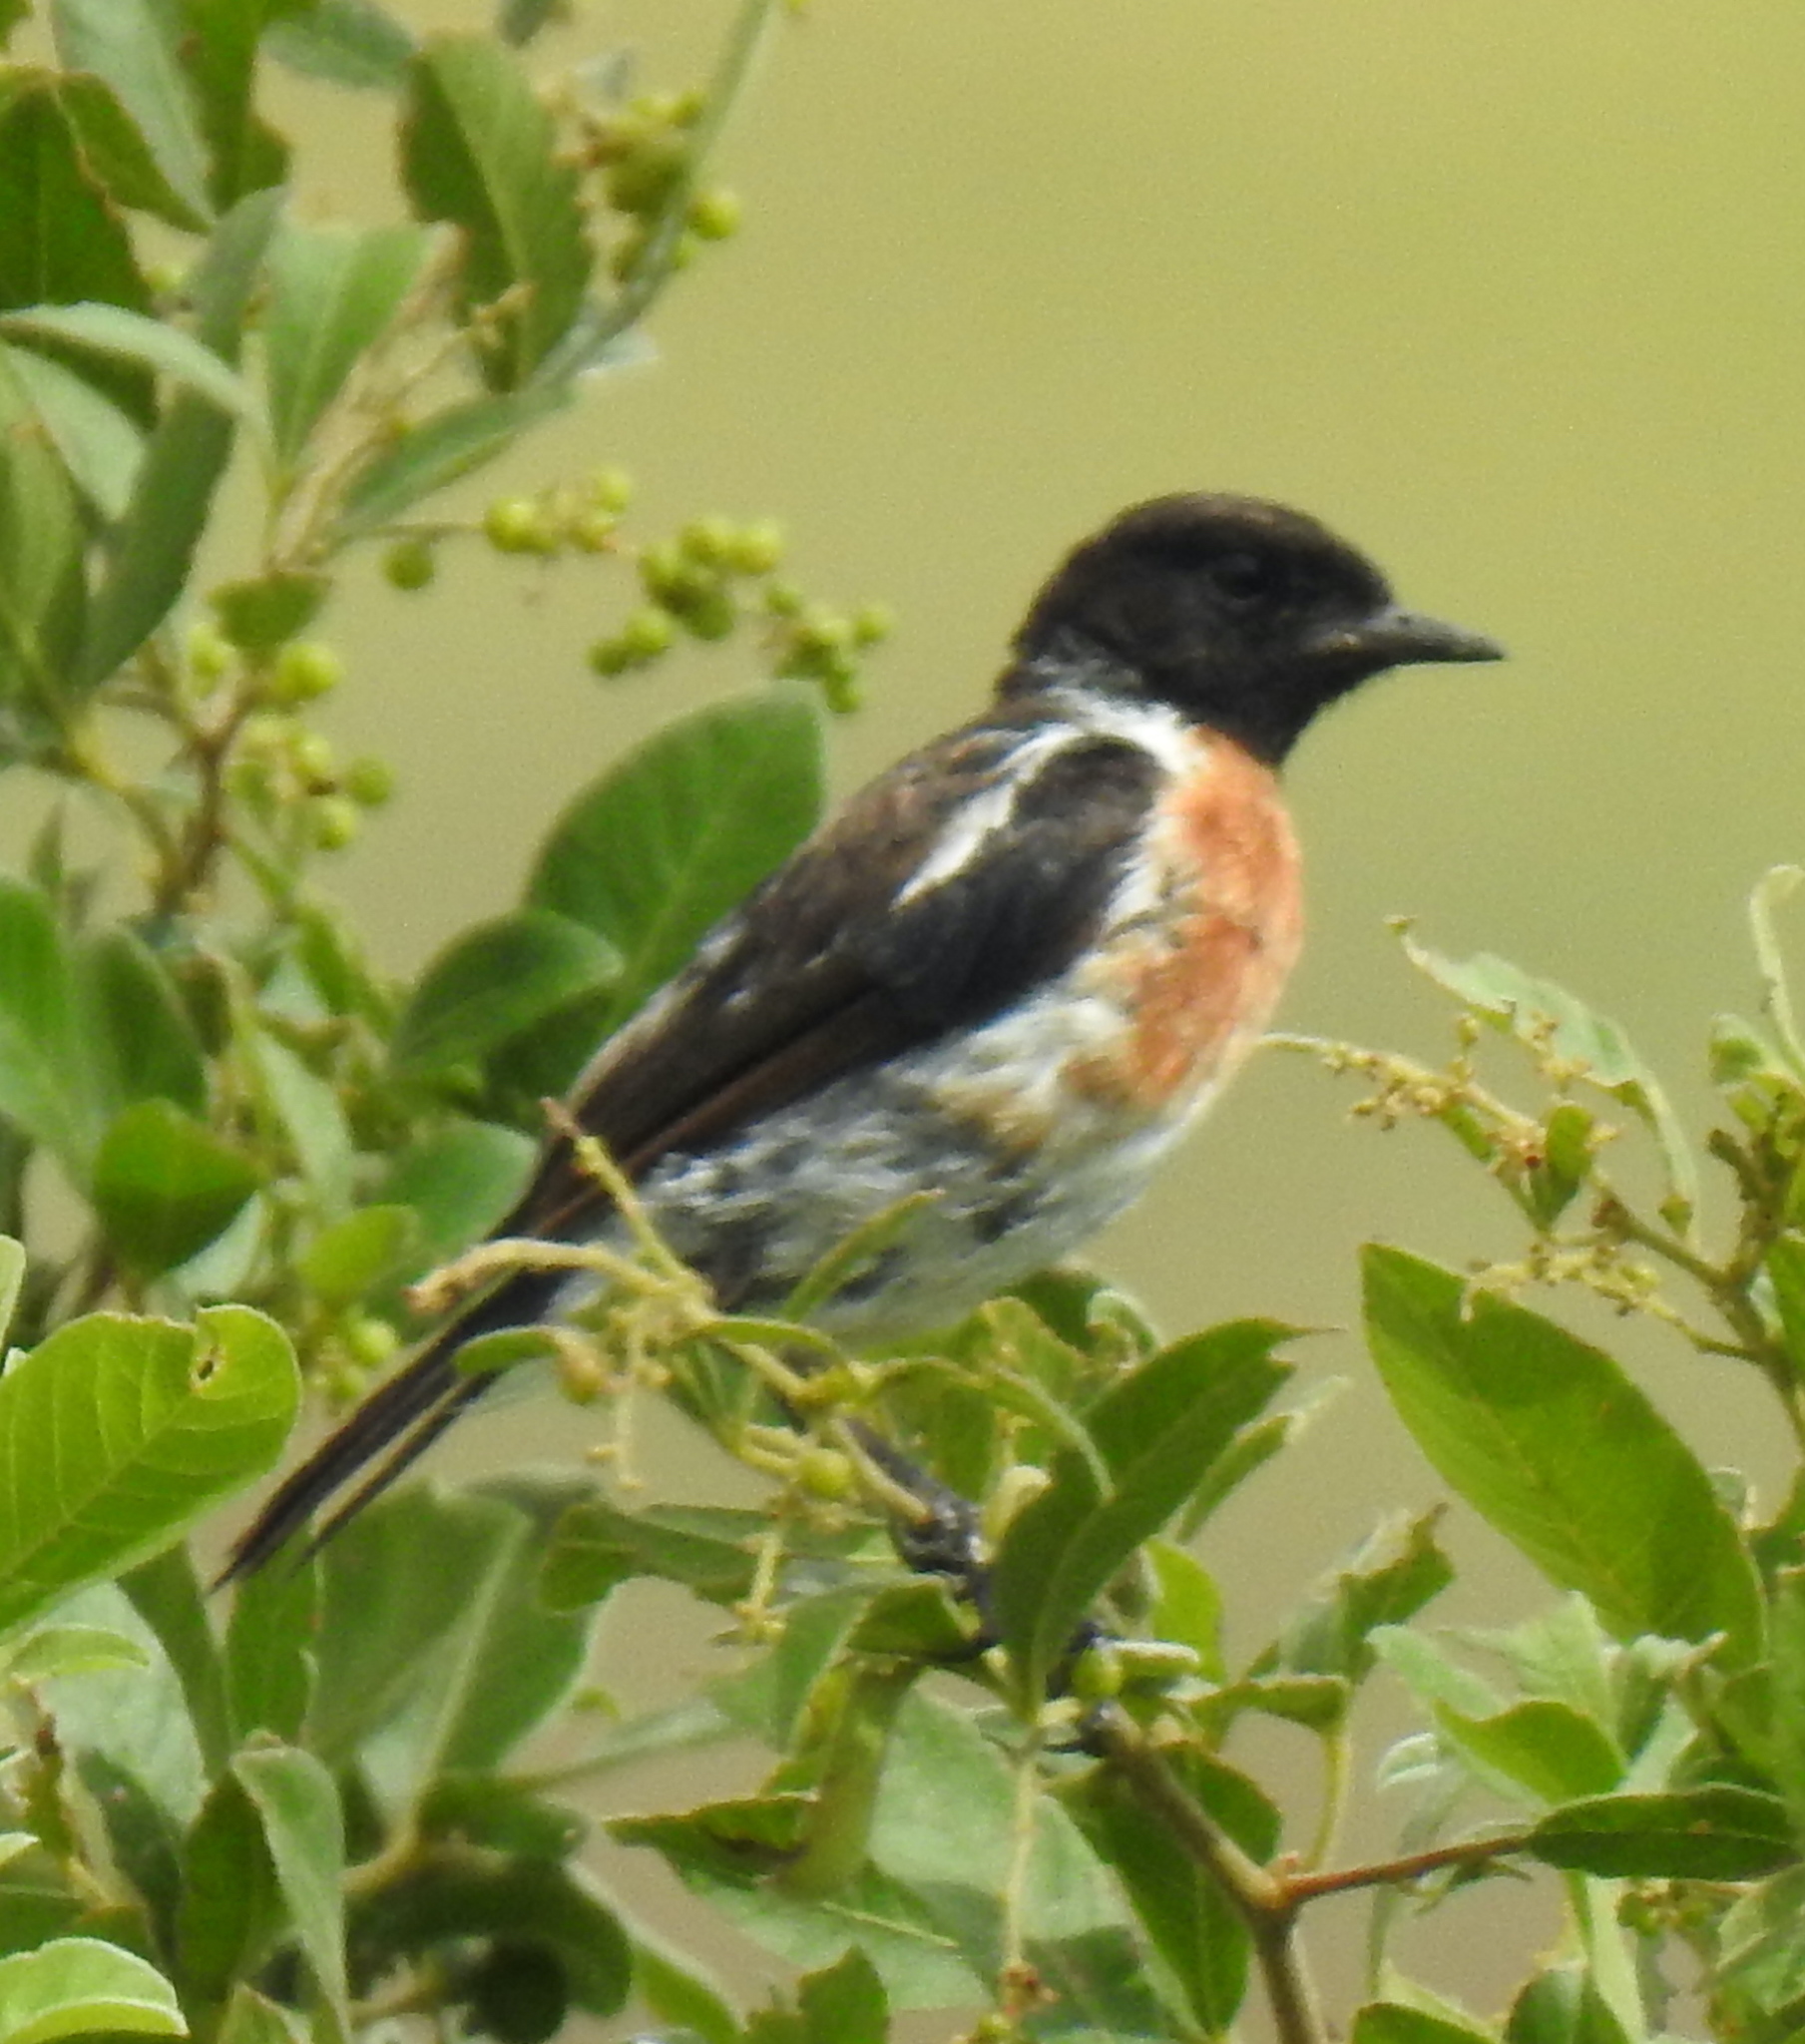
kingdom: Animalia
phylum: Chordata
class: Aves
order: Passeriformes
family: Muscicapidae
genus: Saxicola
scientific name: Saxicola torquatus
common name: African stonechat
